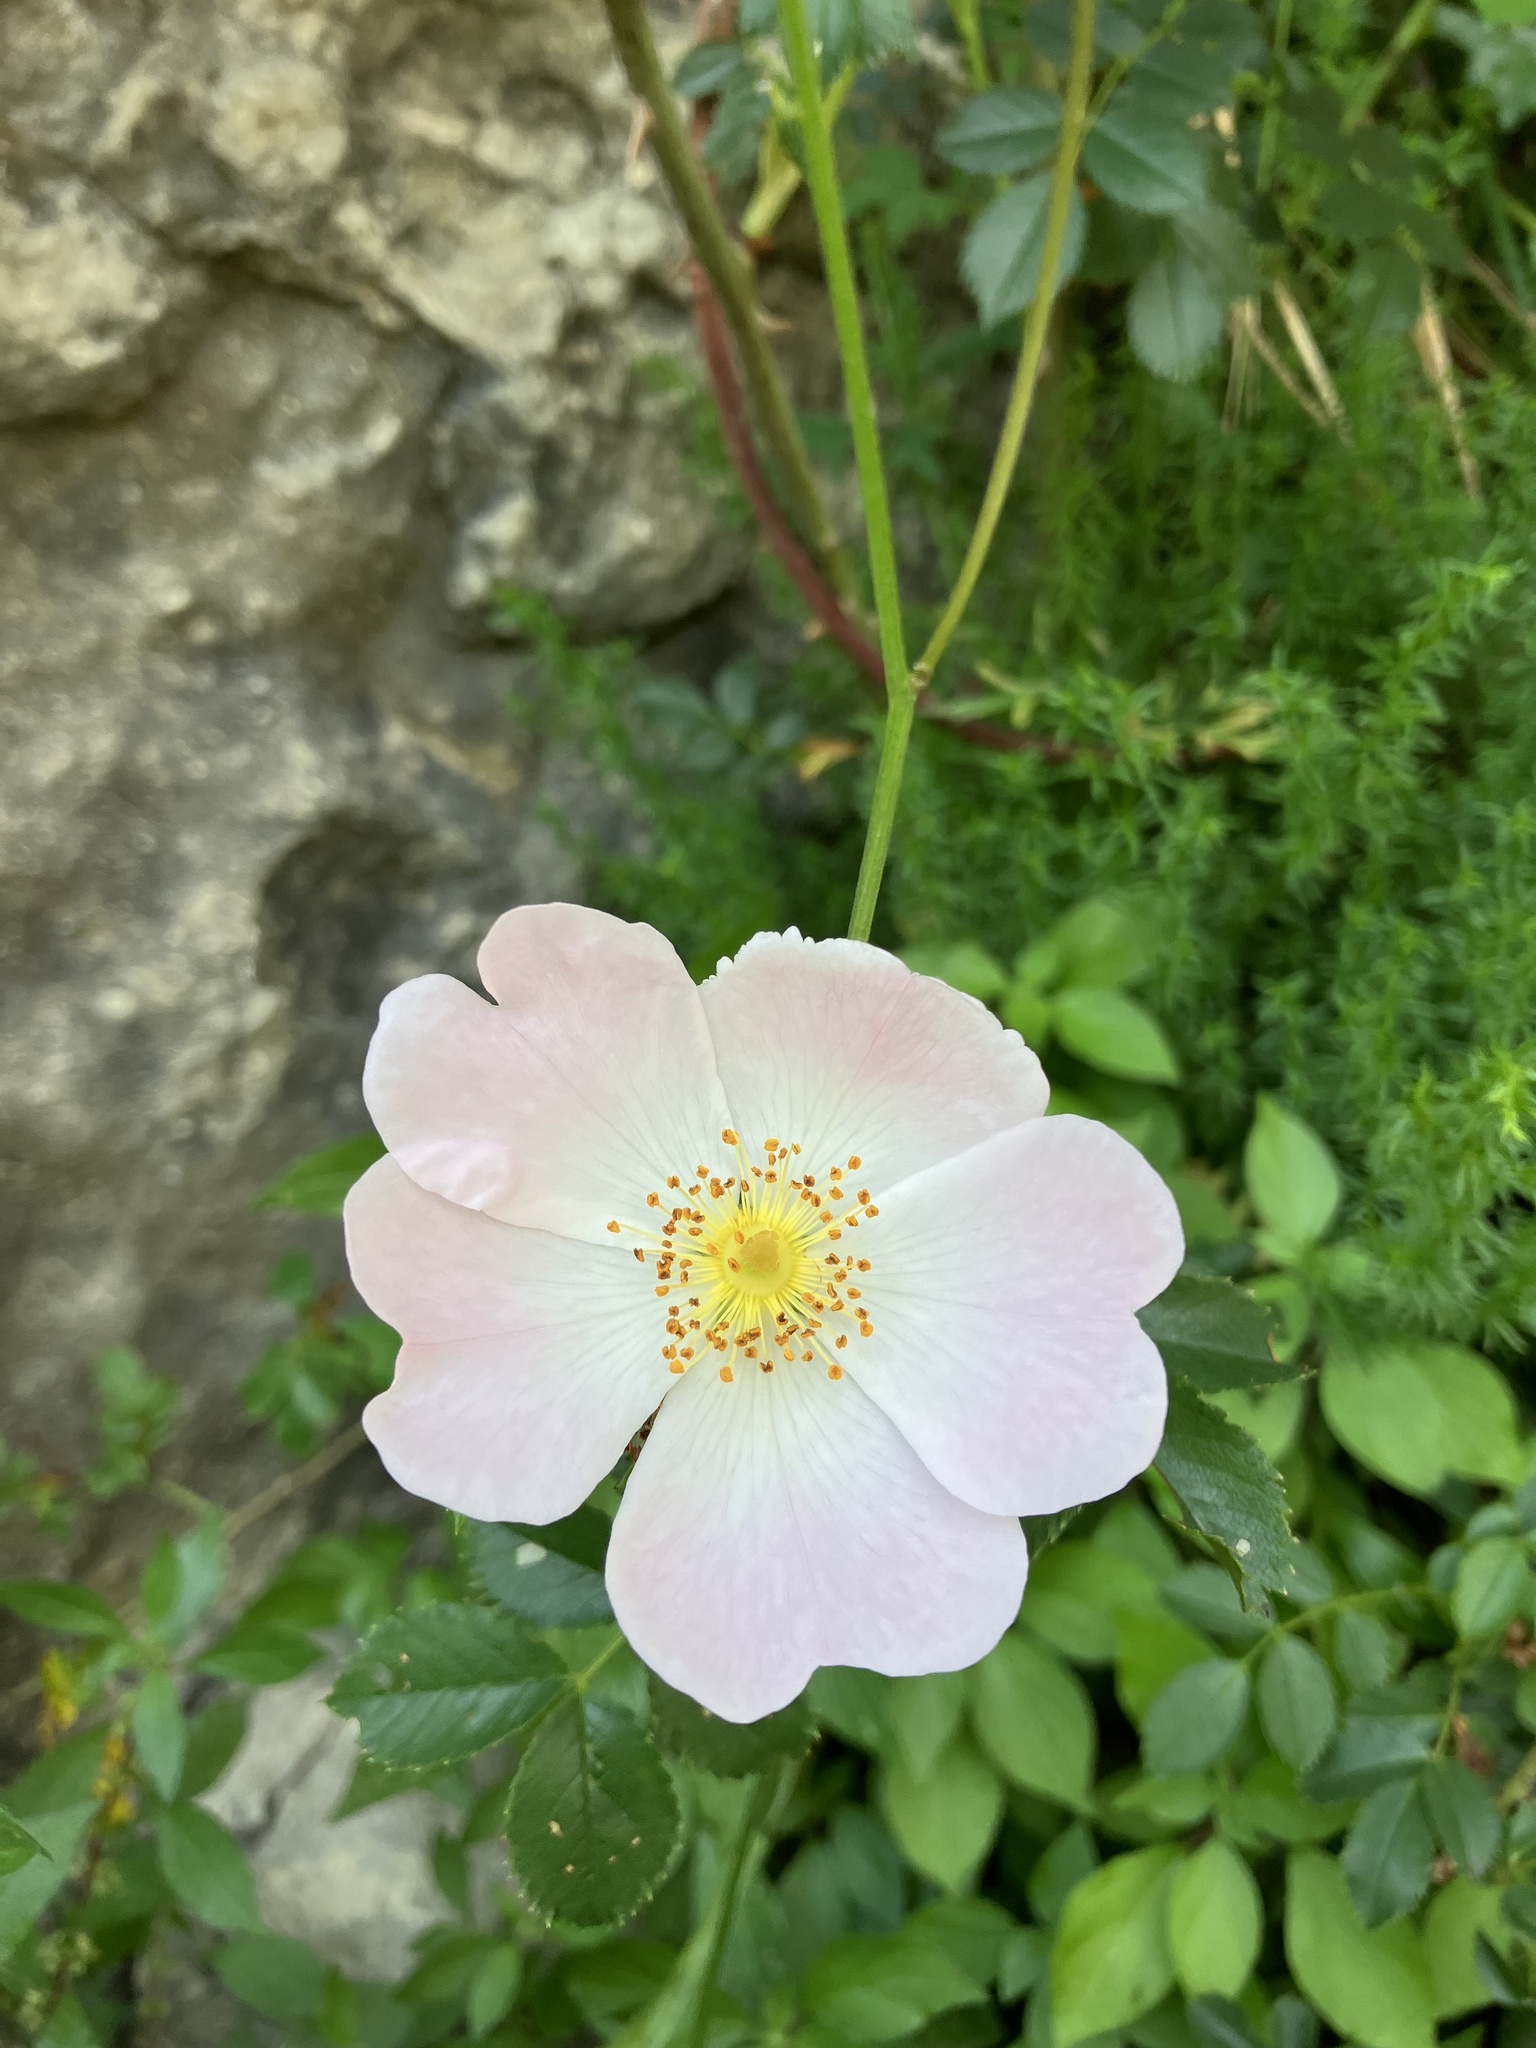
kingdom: Plantae
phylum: Tracheophyta
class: Magnoliopsida
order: Rosales
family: Rosaceae
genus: Rosa
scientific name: Rosa canina
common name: Dog rose
